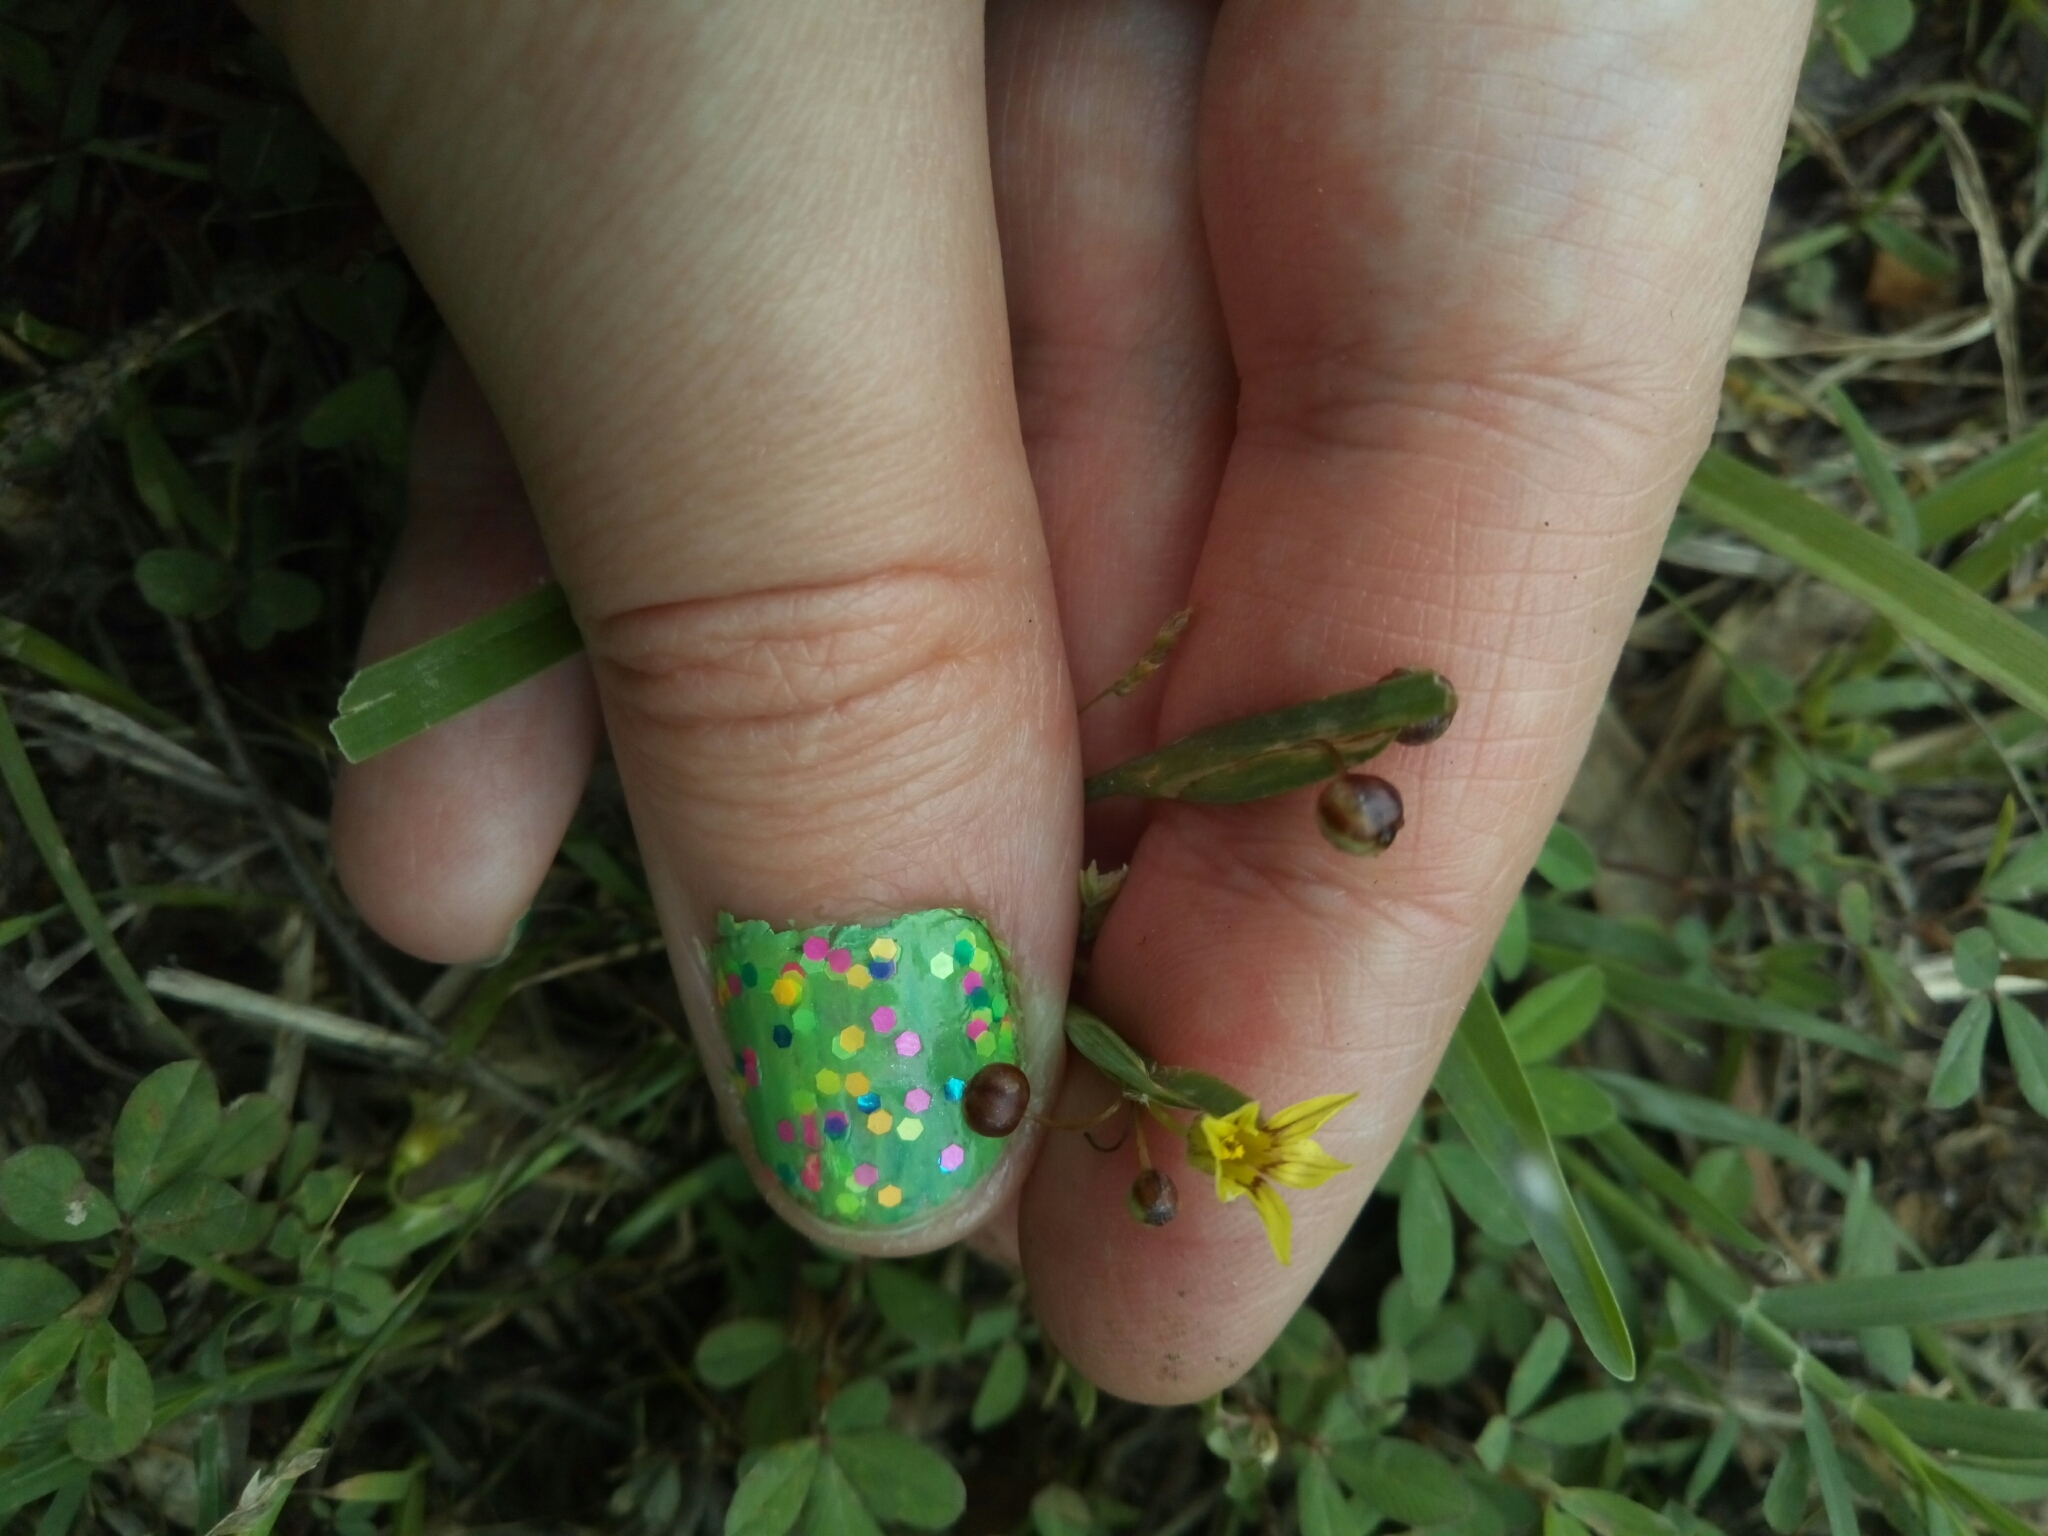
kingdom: Plantae
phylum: Tracheophyta
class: Liliopsida
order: Asparagales
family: Iridaceae
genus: Sisyrinchium
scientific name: Sisyrinchium micranthum
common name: Bermuda pigroot
